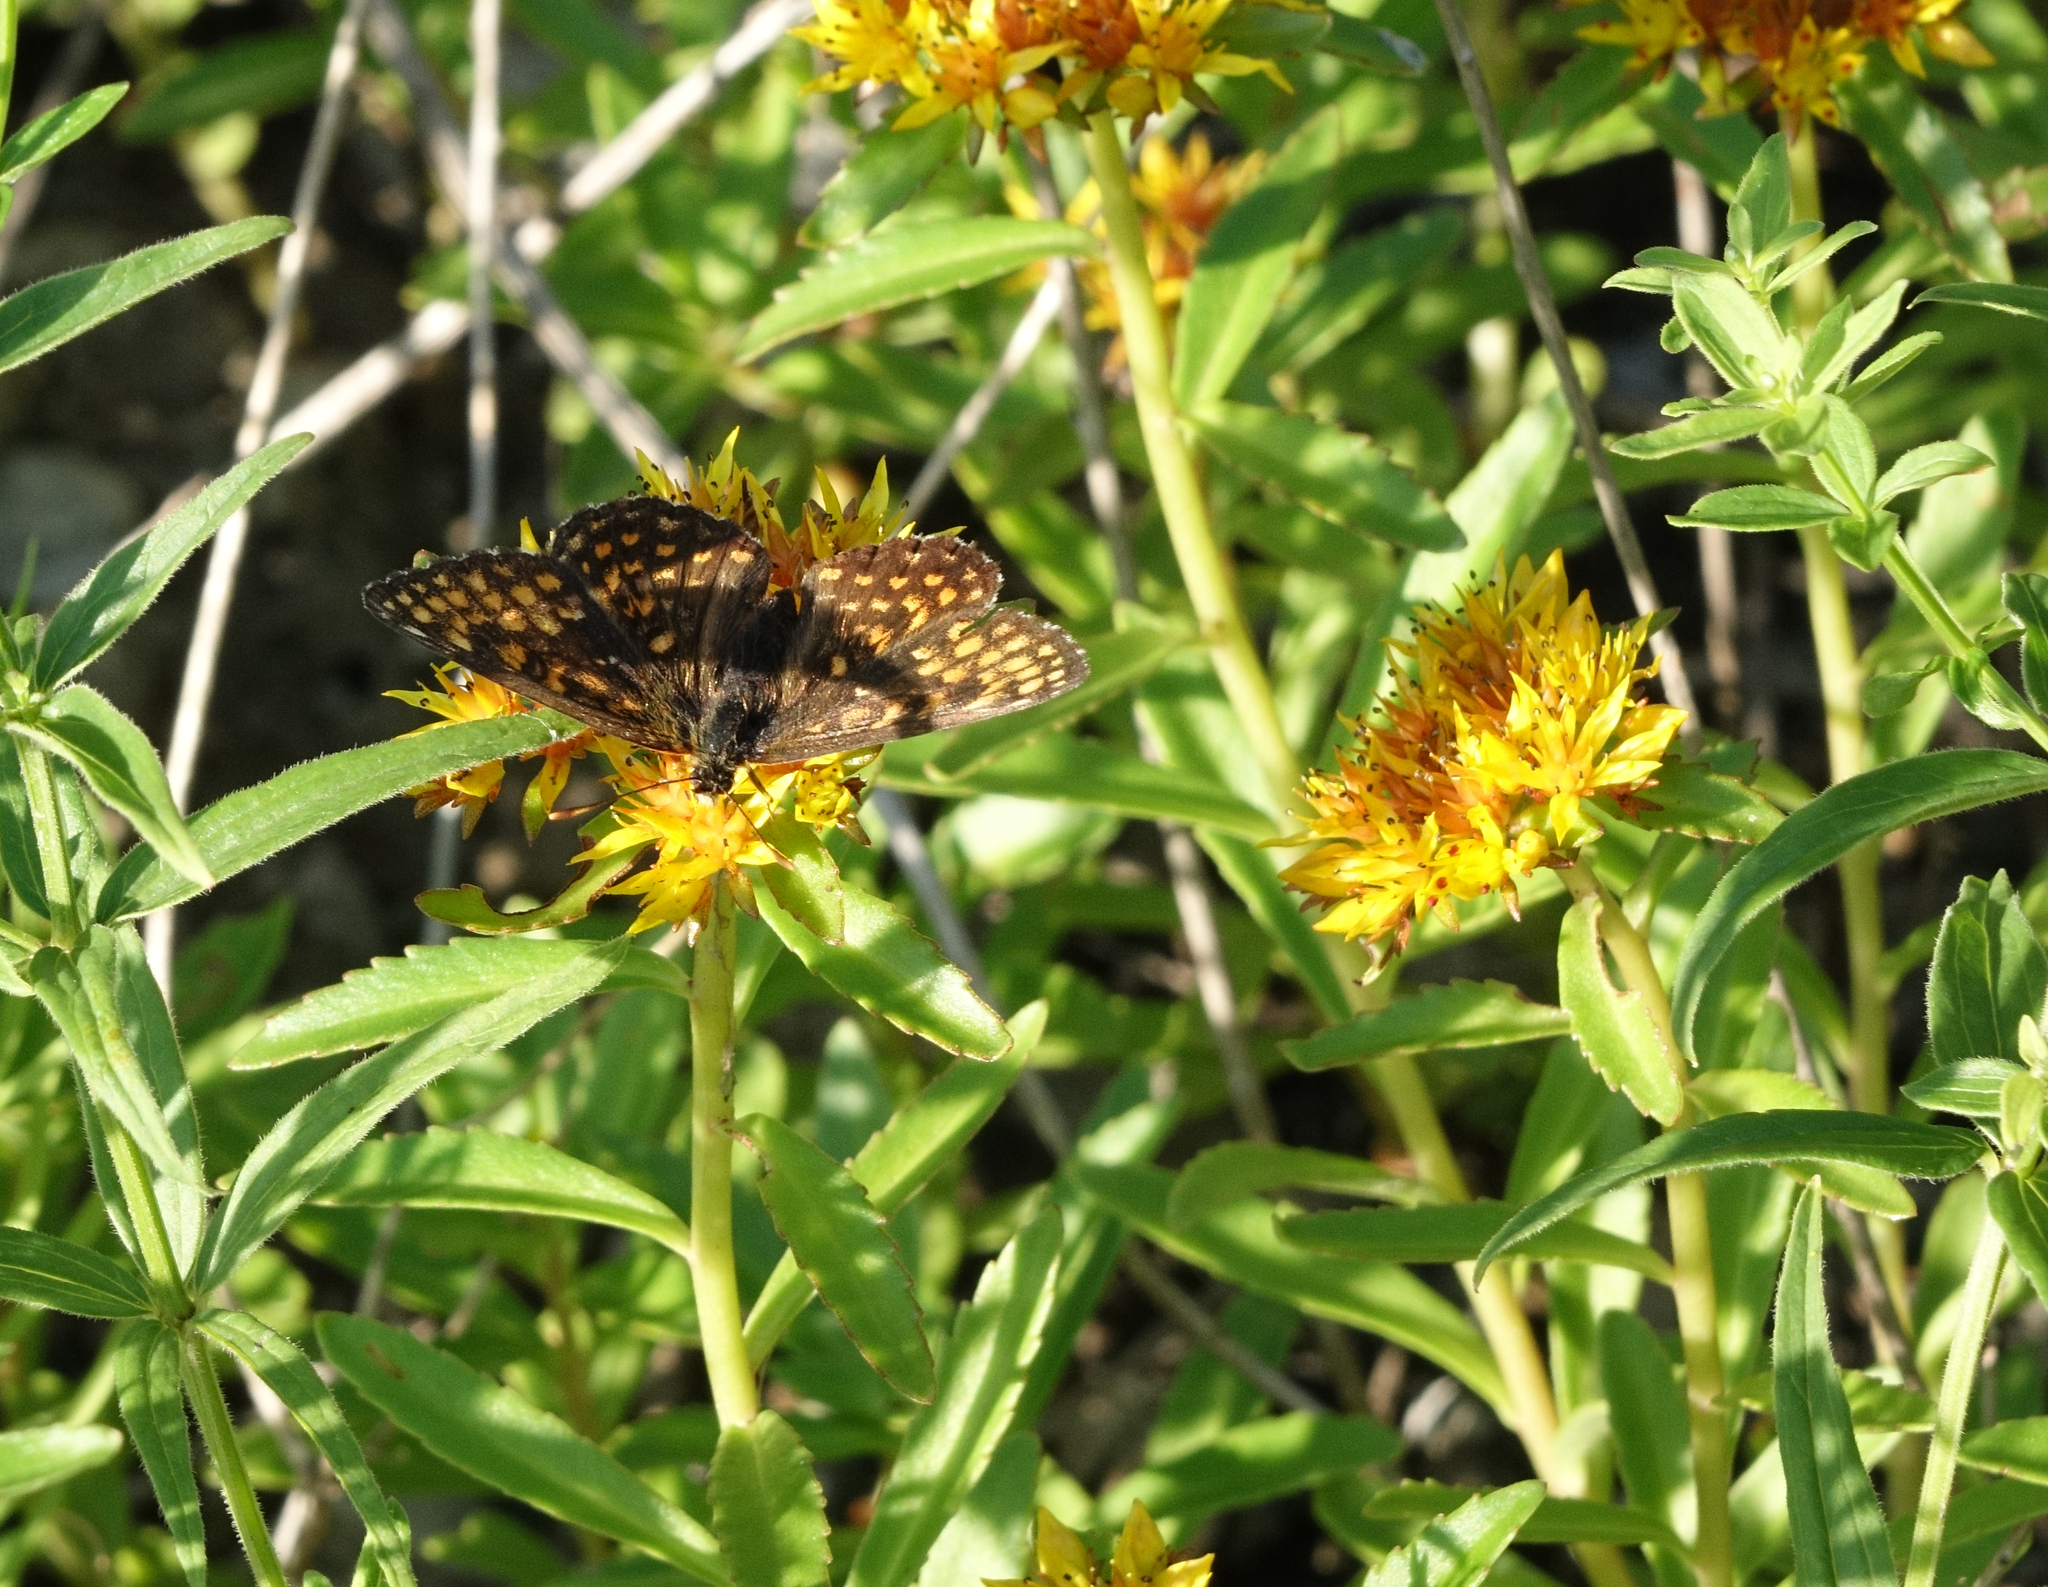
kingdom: Animalia
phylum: Arthropoda
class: Insecta
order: Lepidoptera
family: Nymphalidae
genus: Melitaea
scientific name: Melitaea
